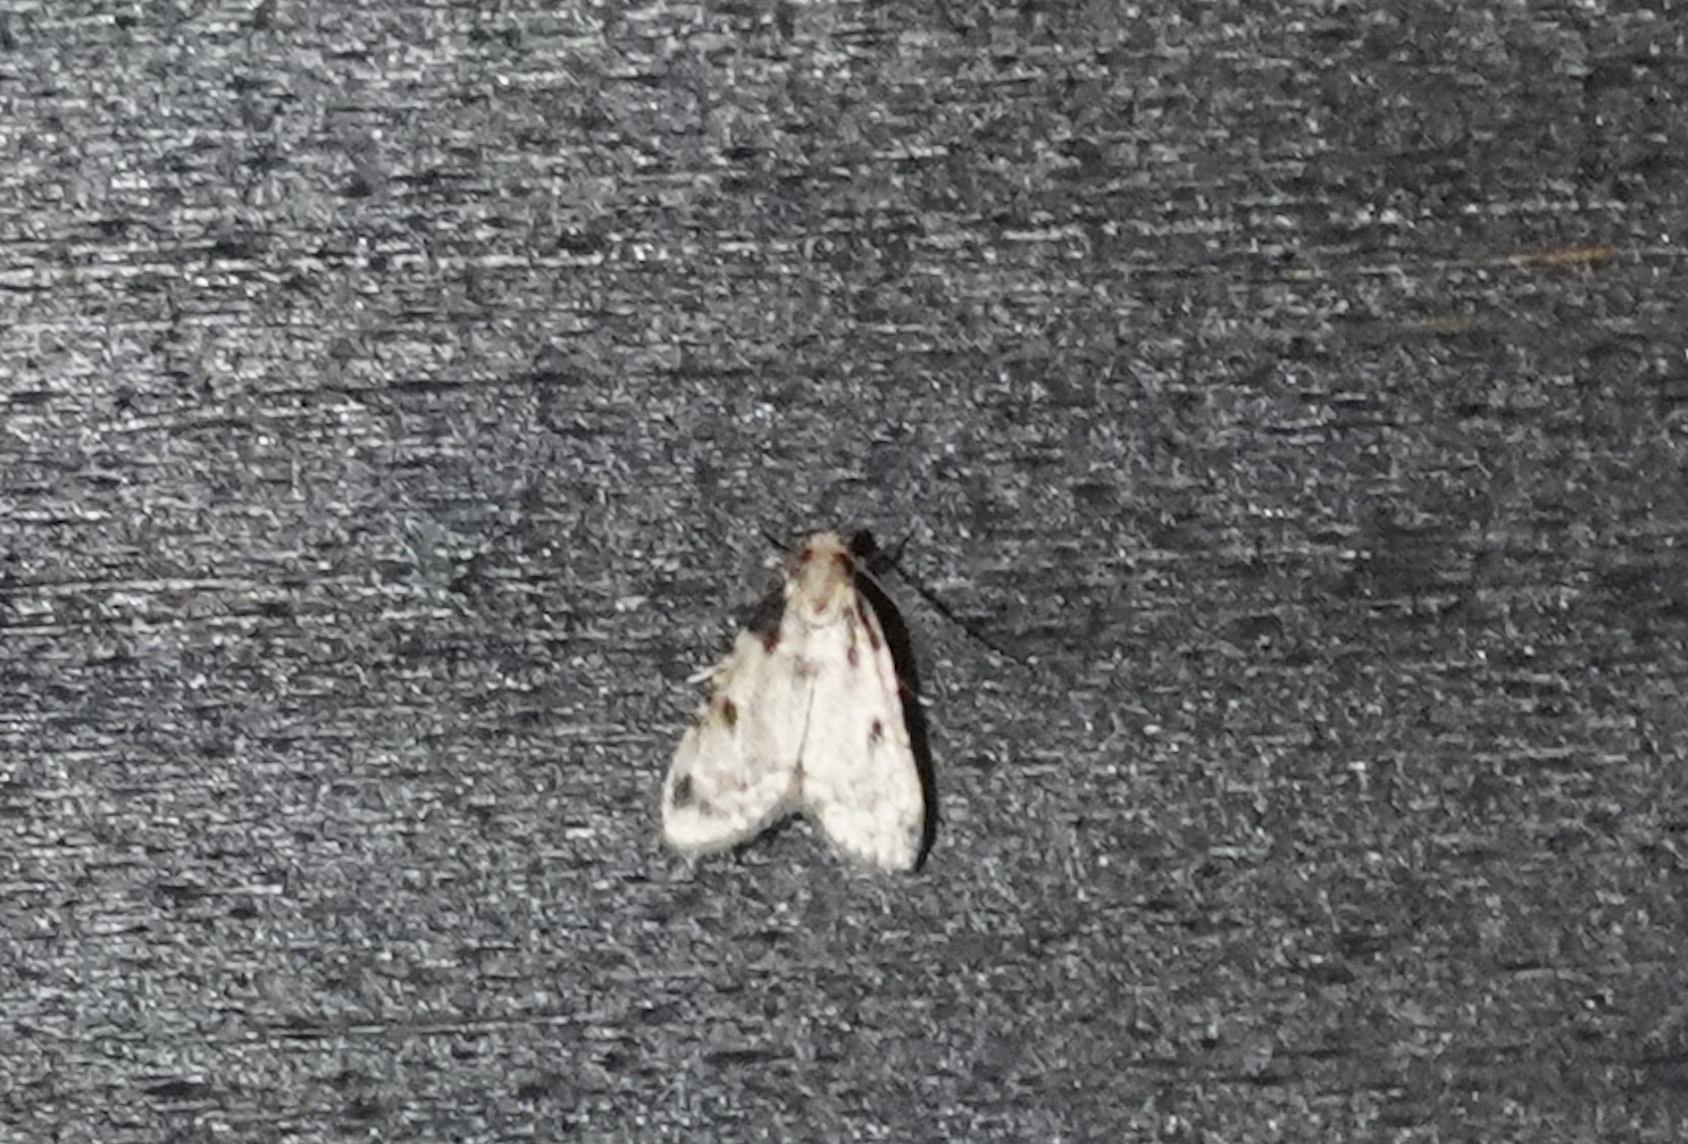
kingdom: Animalia
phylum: Arthropoda
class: Insecta
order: Lepidoptera
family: Pyralidae
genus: Aglossa
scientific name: Aglossa costiferalis
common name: Calico pyralid moth
